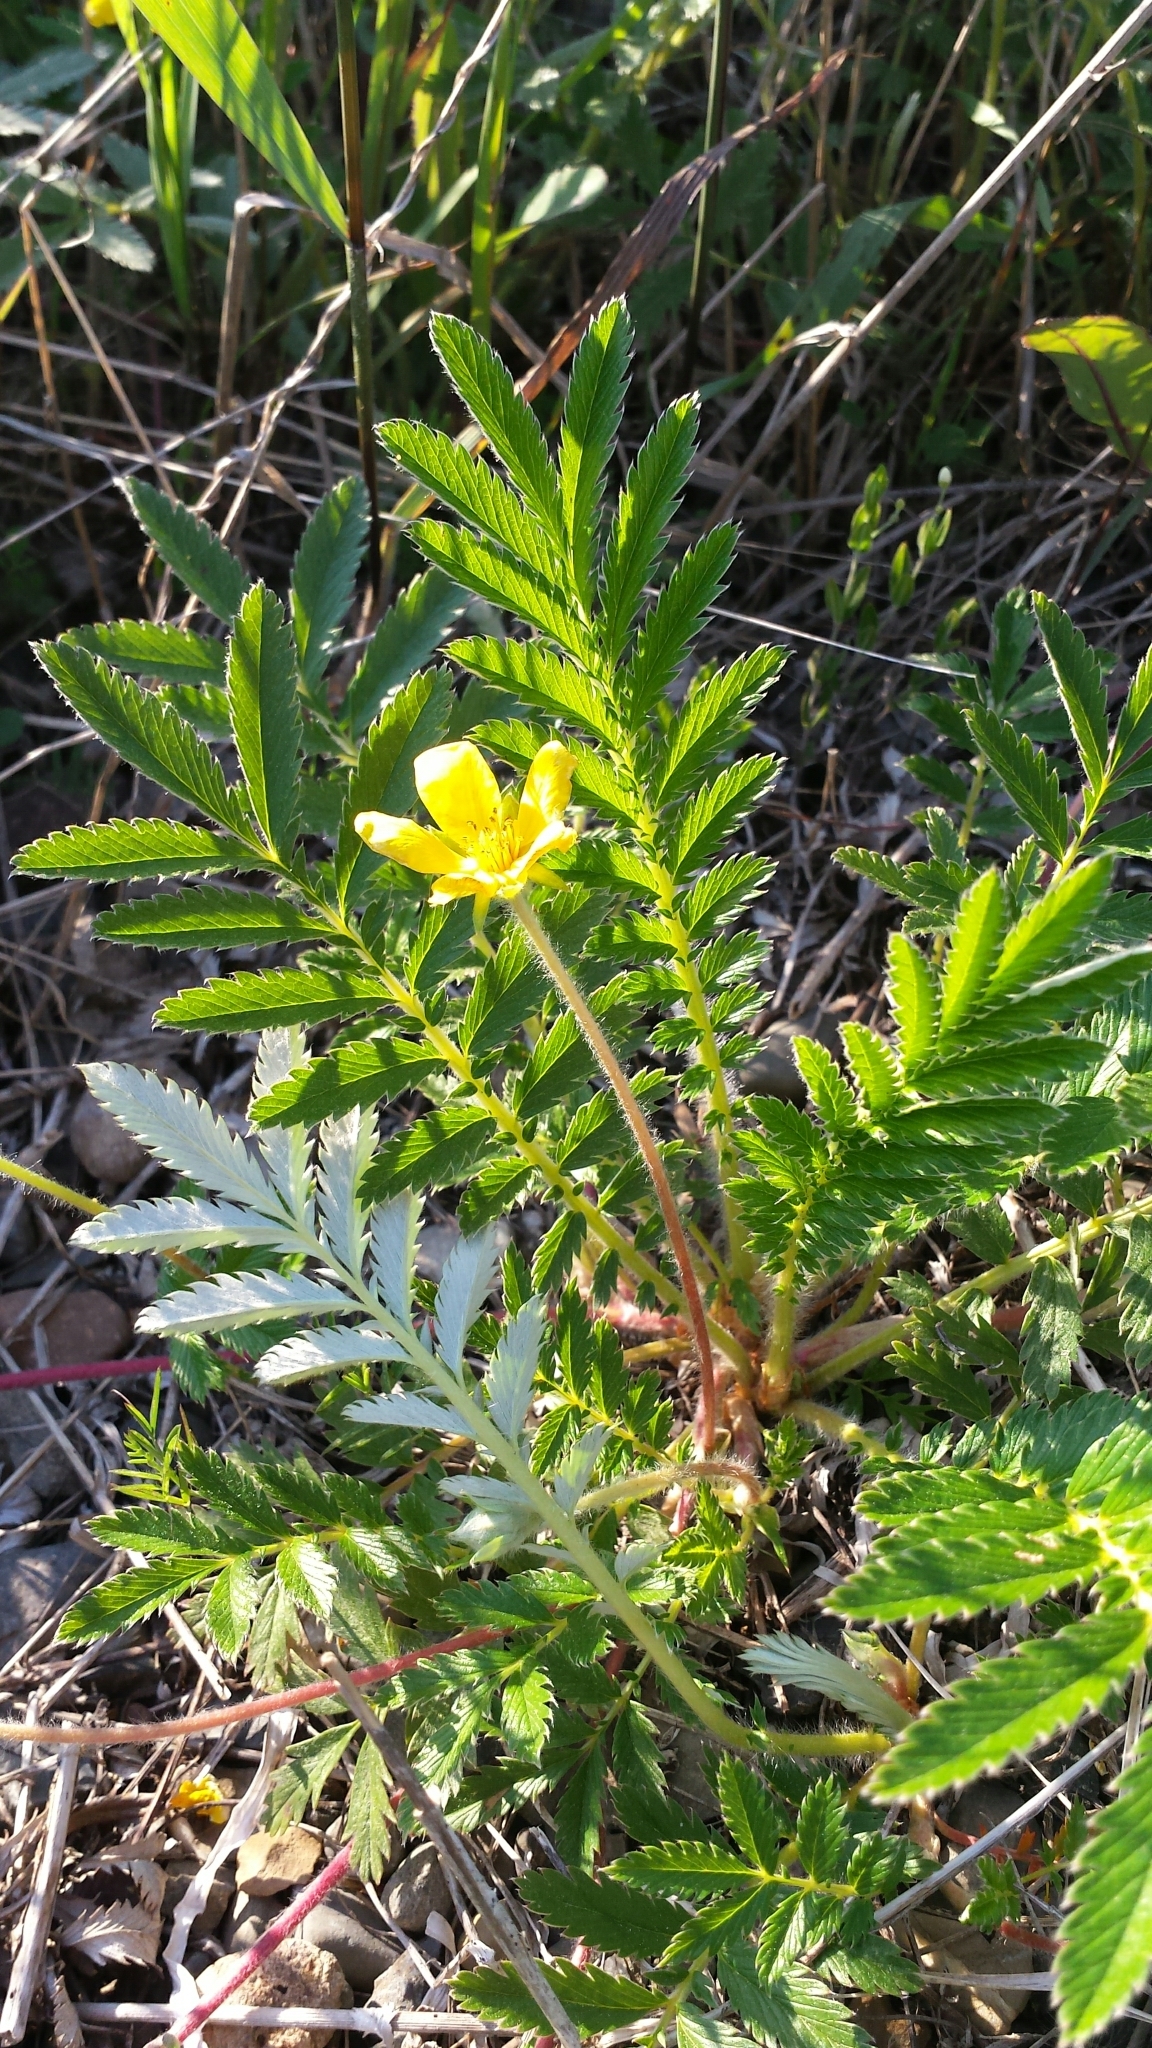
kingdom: Plantae
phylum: Tracheophyta
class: Magnoliopsida
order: Rosales
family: Rosaceae
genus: Argentina
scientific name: Argentina anserina
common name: Common silverweed
